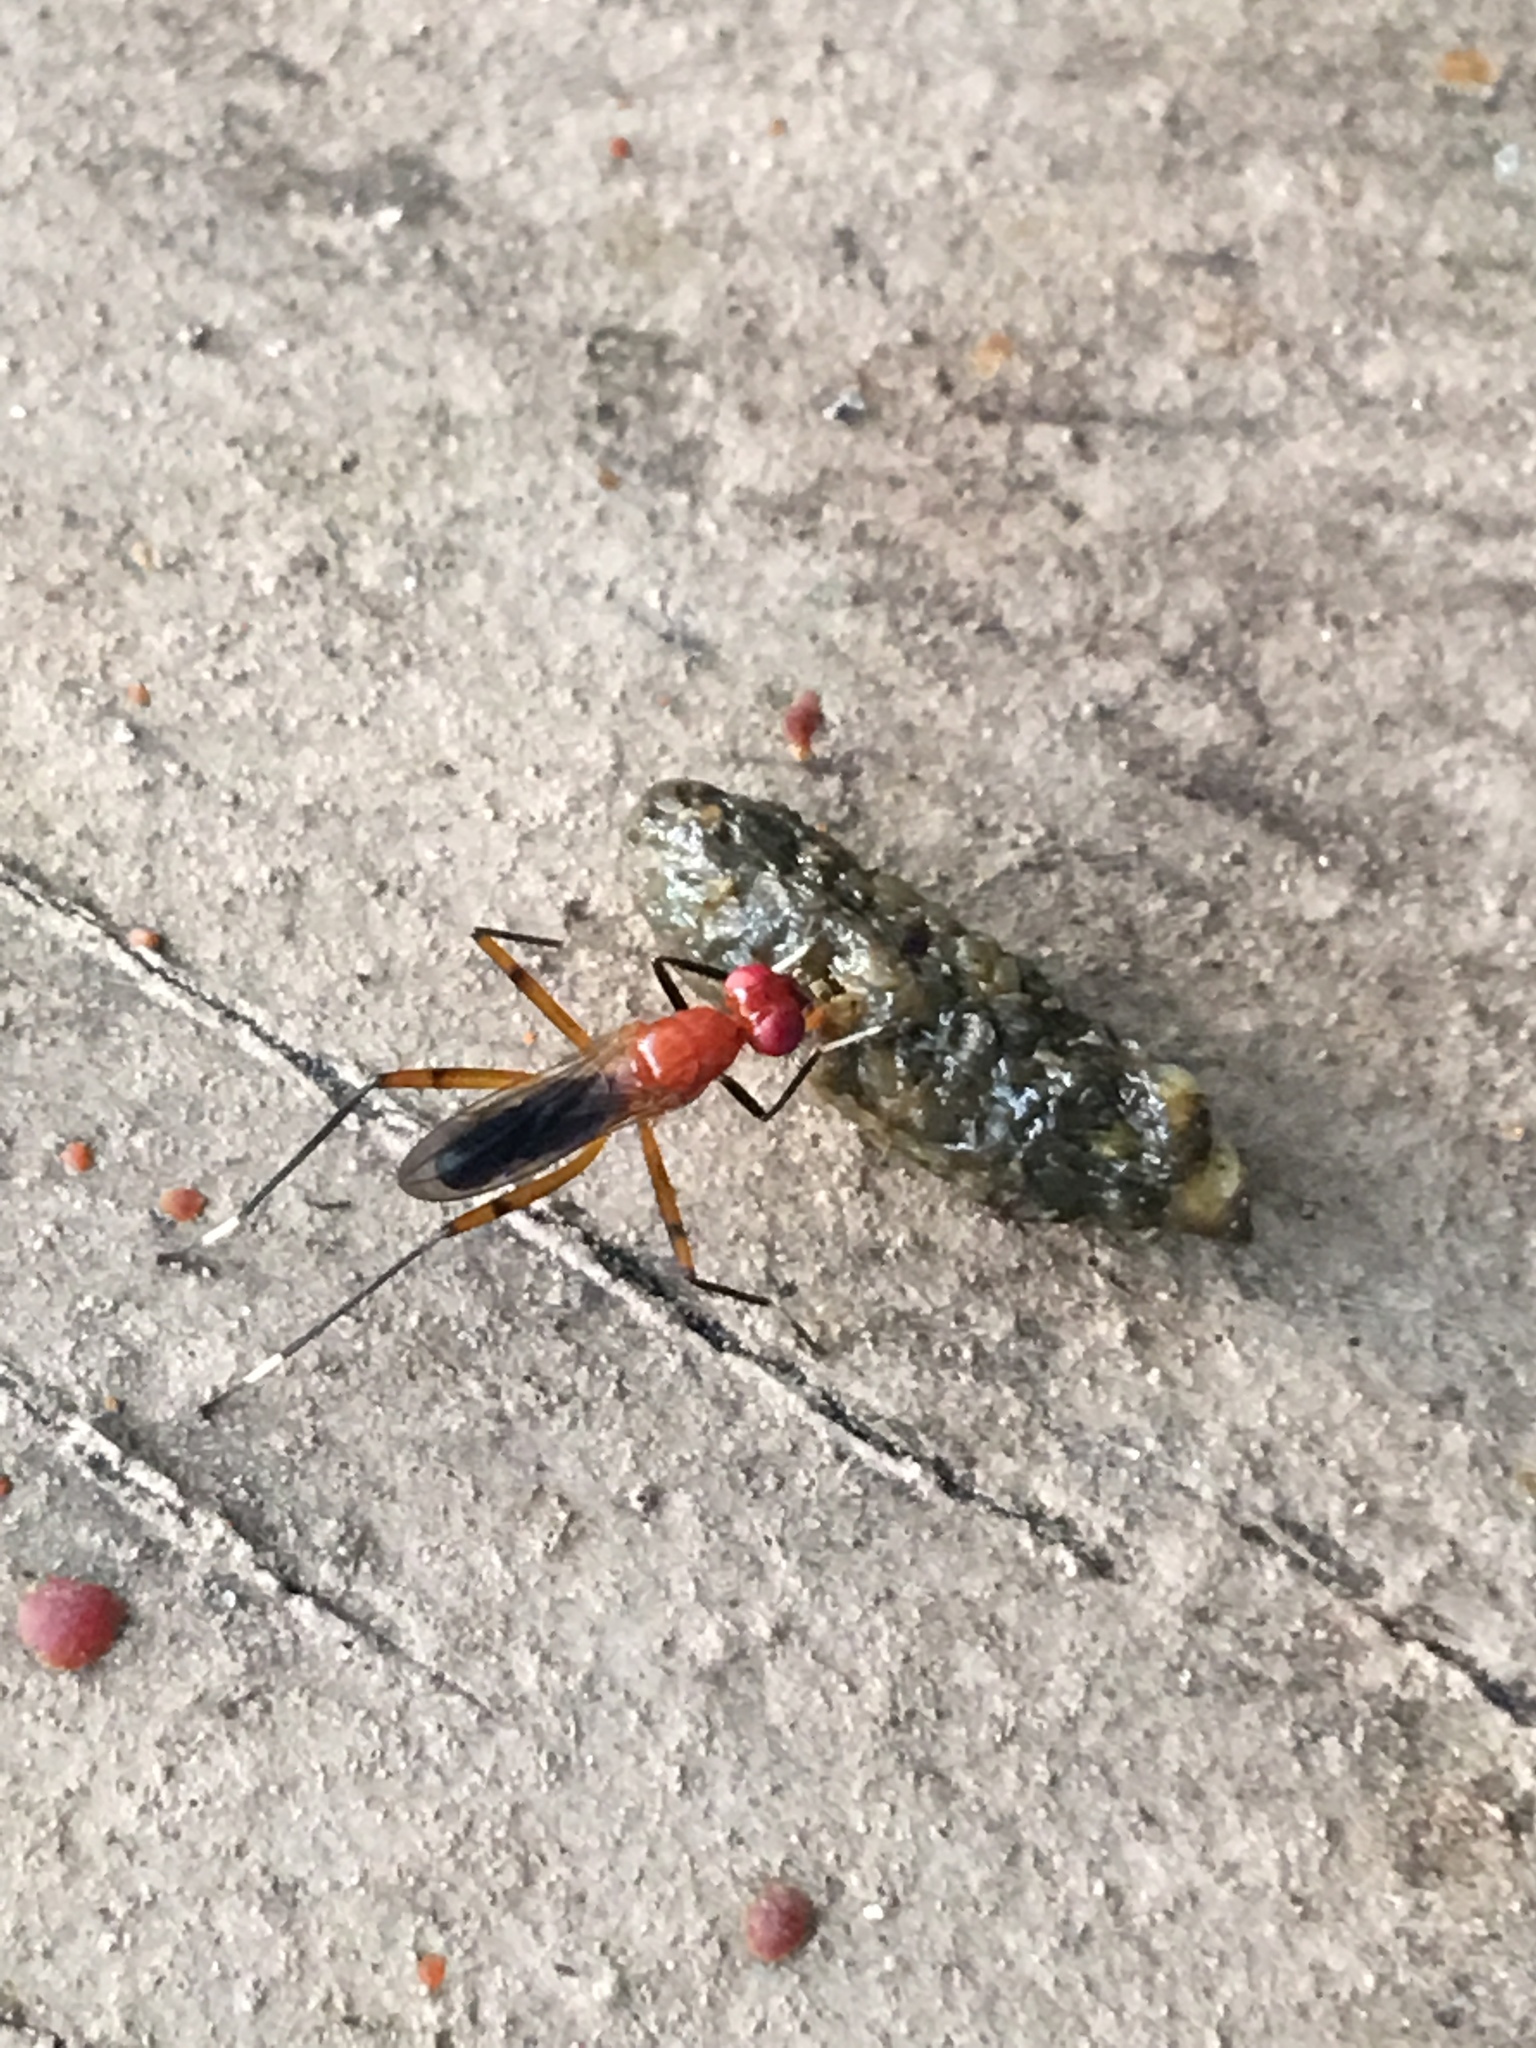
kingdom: Animalia
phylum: Arthropoda
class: Insecta
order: Diptera
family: Micropezidae
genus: Grallipeza
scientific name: Grallipeza nebulosa
